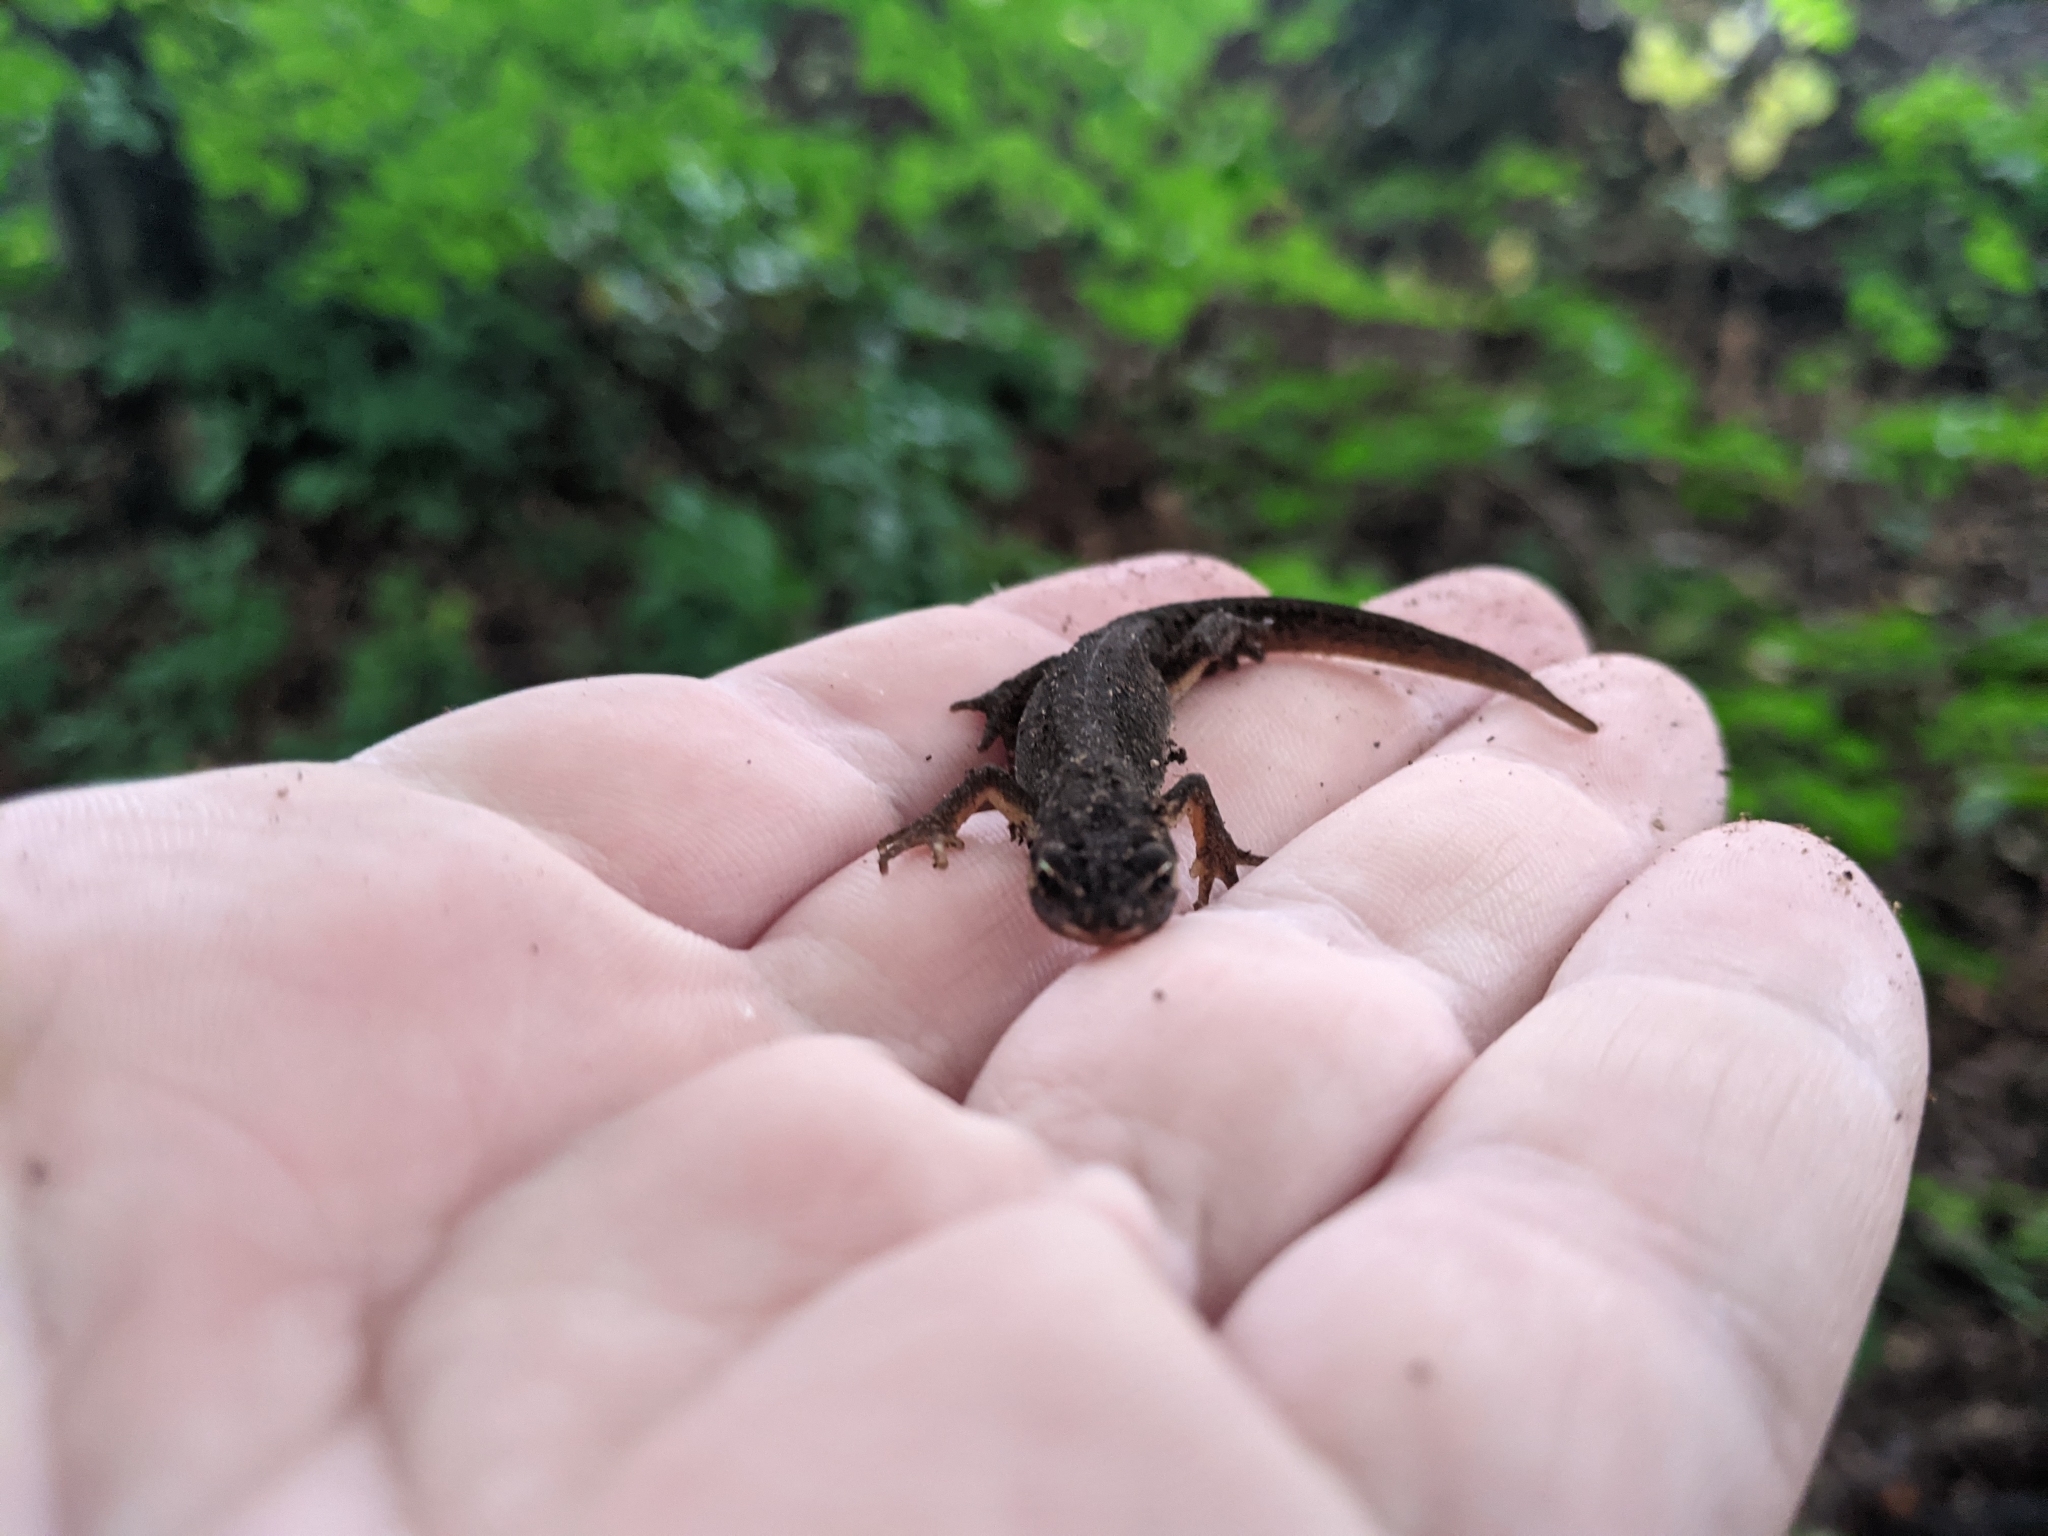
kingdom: Animalia
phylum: Chordata
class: Amphibia
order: Caudata
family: Salamandridae
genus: Lissotriton
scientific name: Lissotriton vulgaris
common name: Smooth newt
